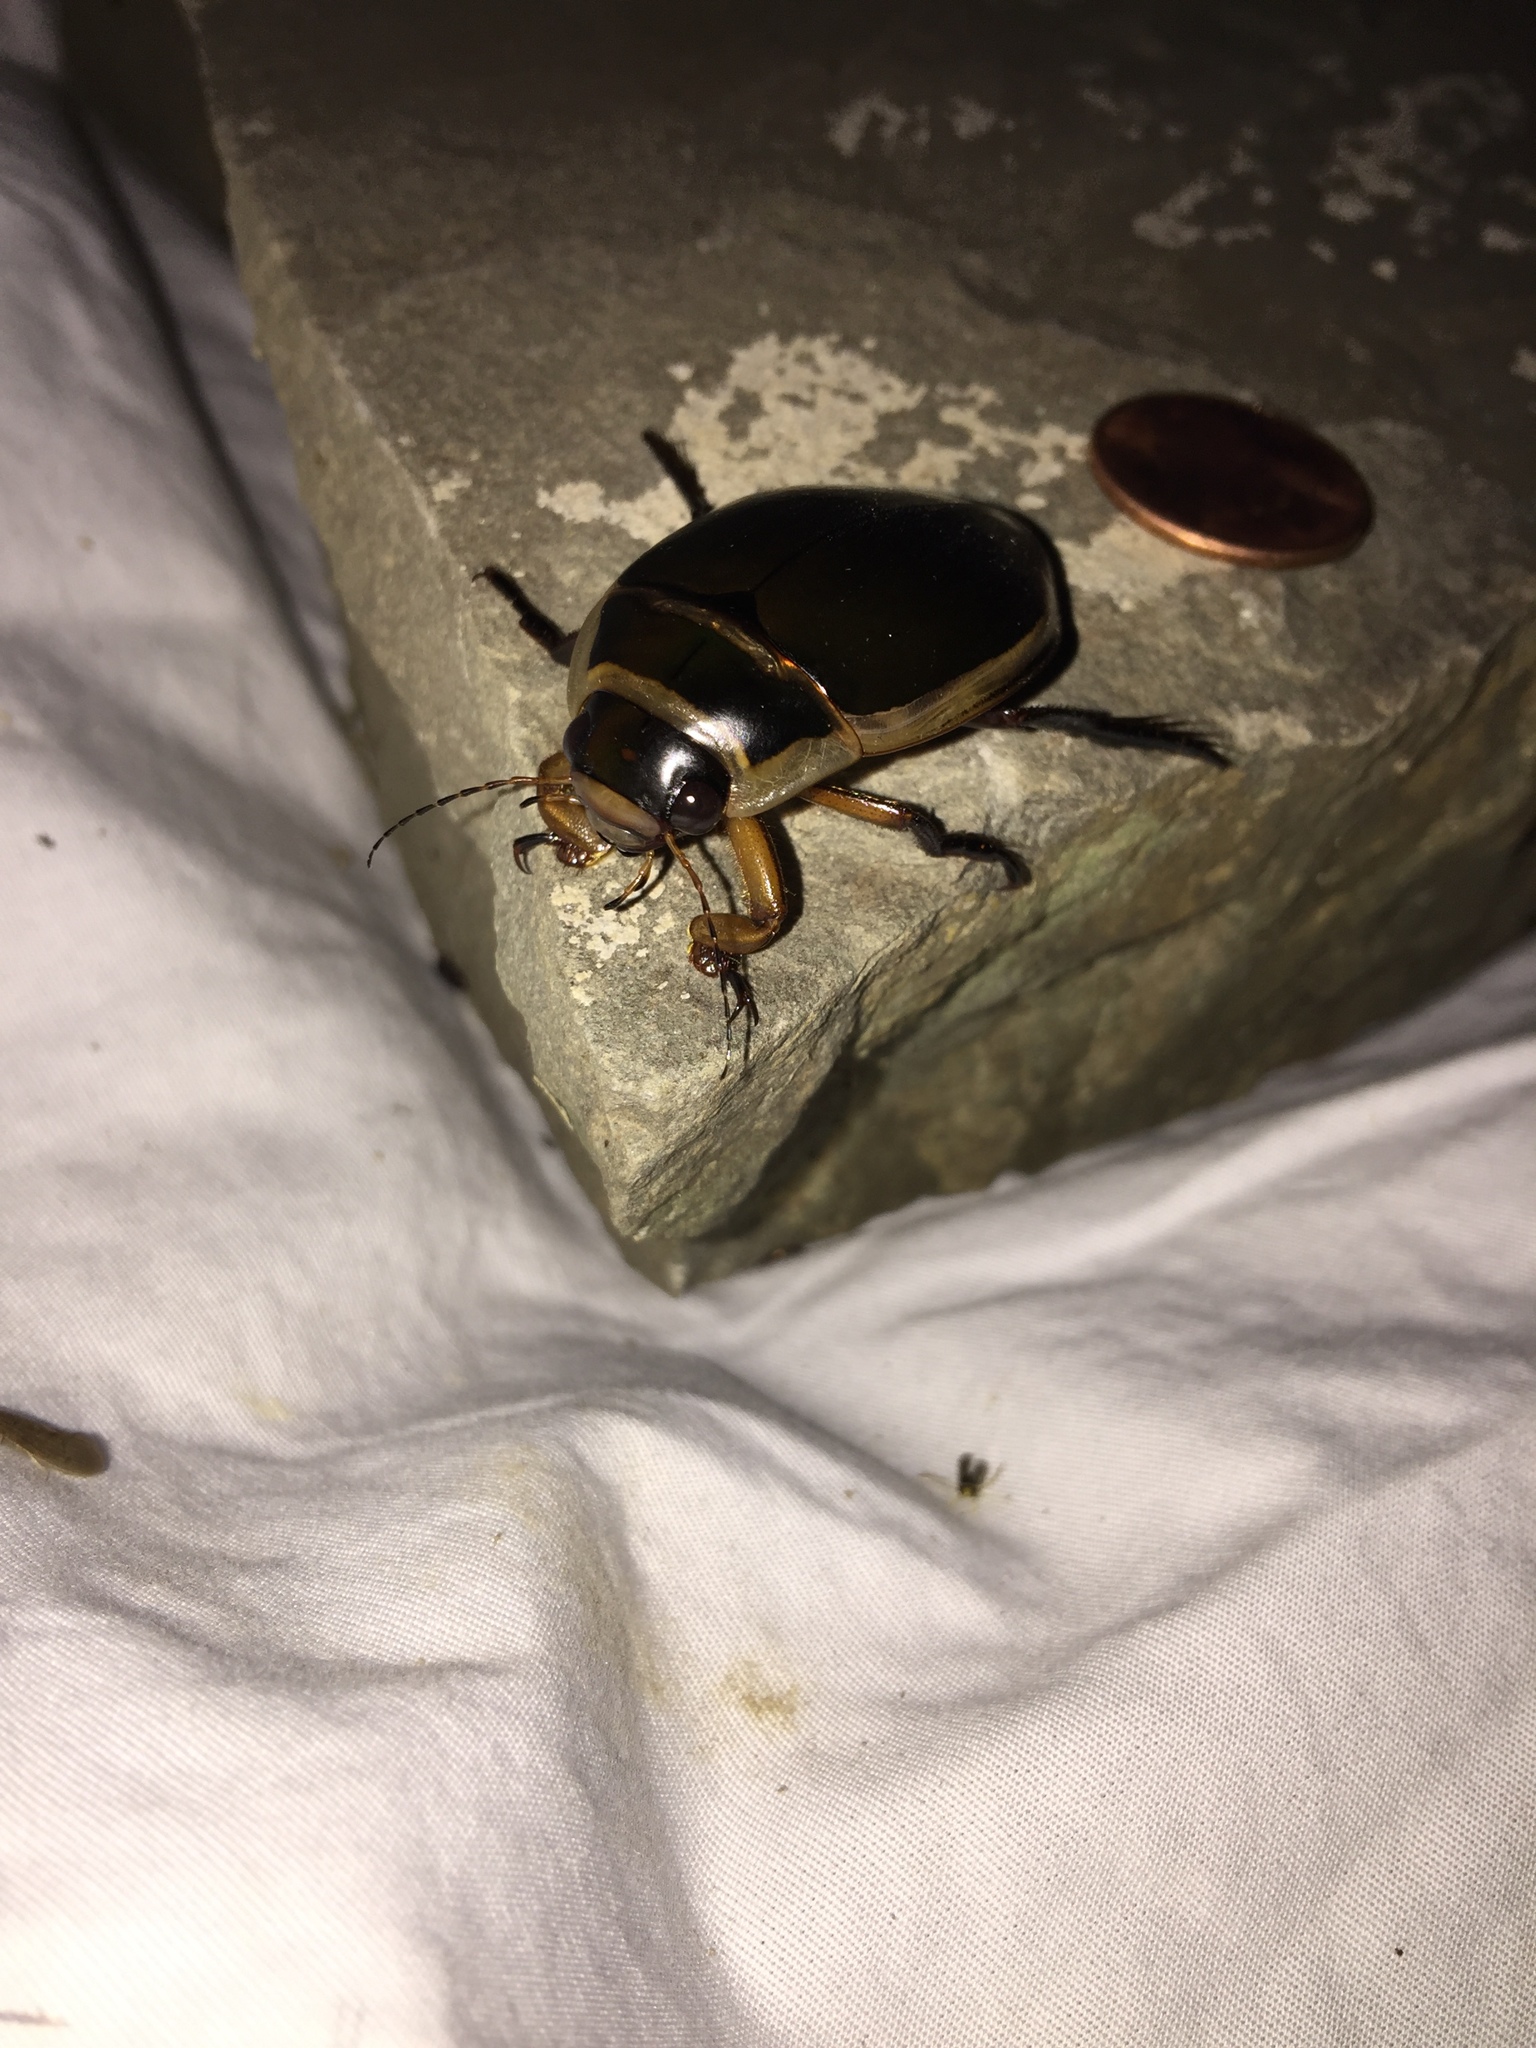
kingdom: Animalia
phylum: Arthropoda
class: Insecta
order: Coleoptera
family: Dytiscidae
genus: Dytiscus
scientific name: Dytiscus
